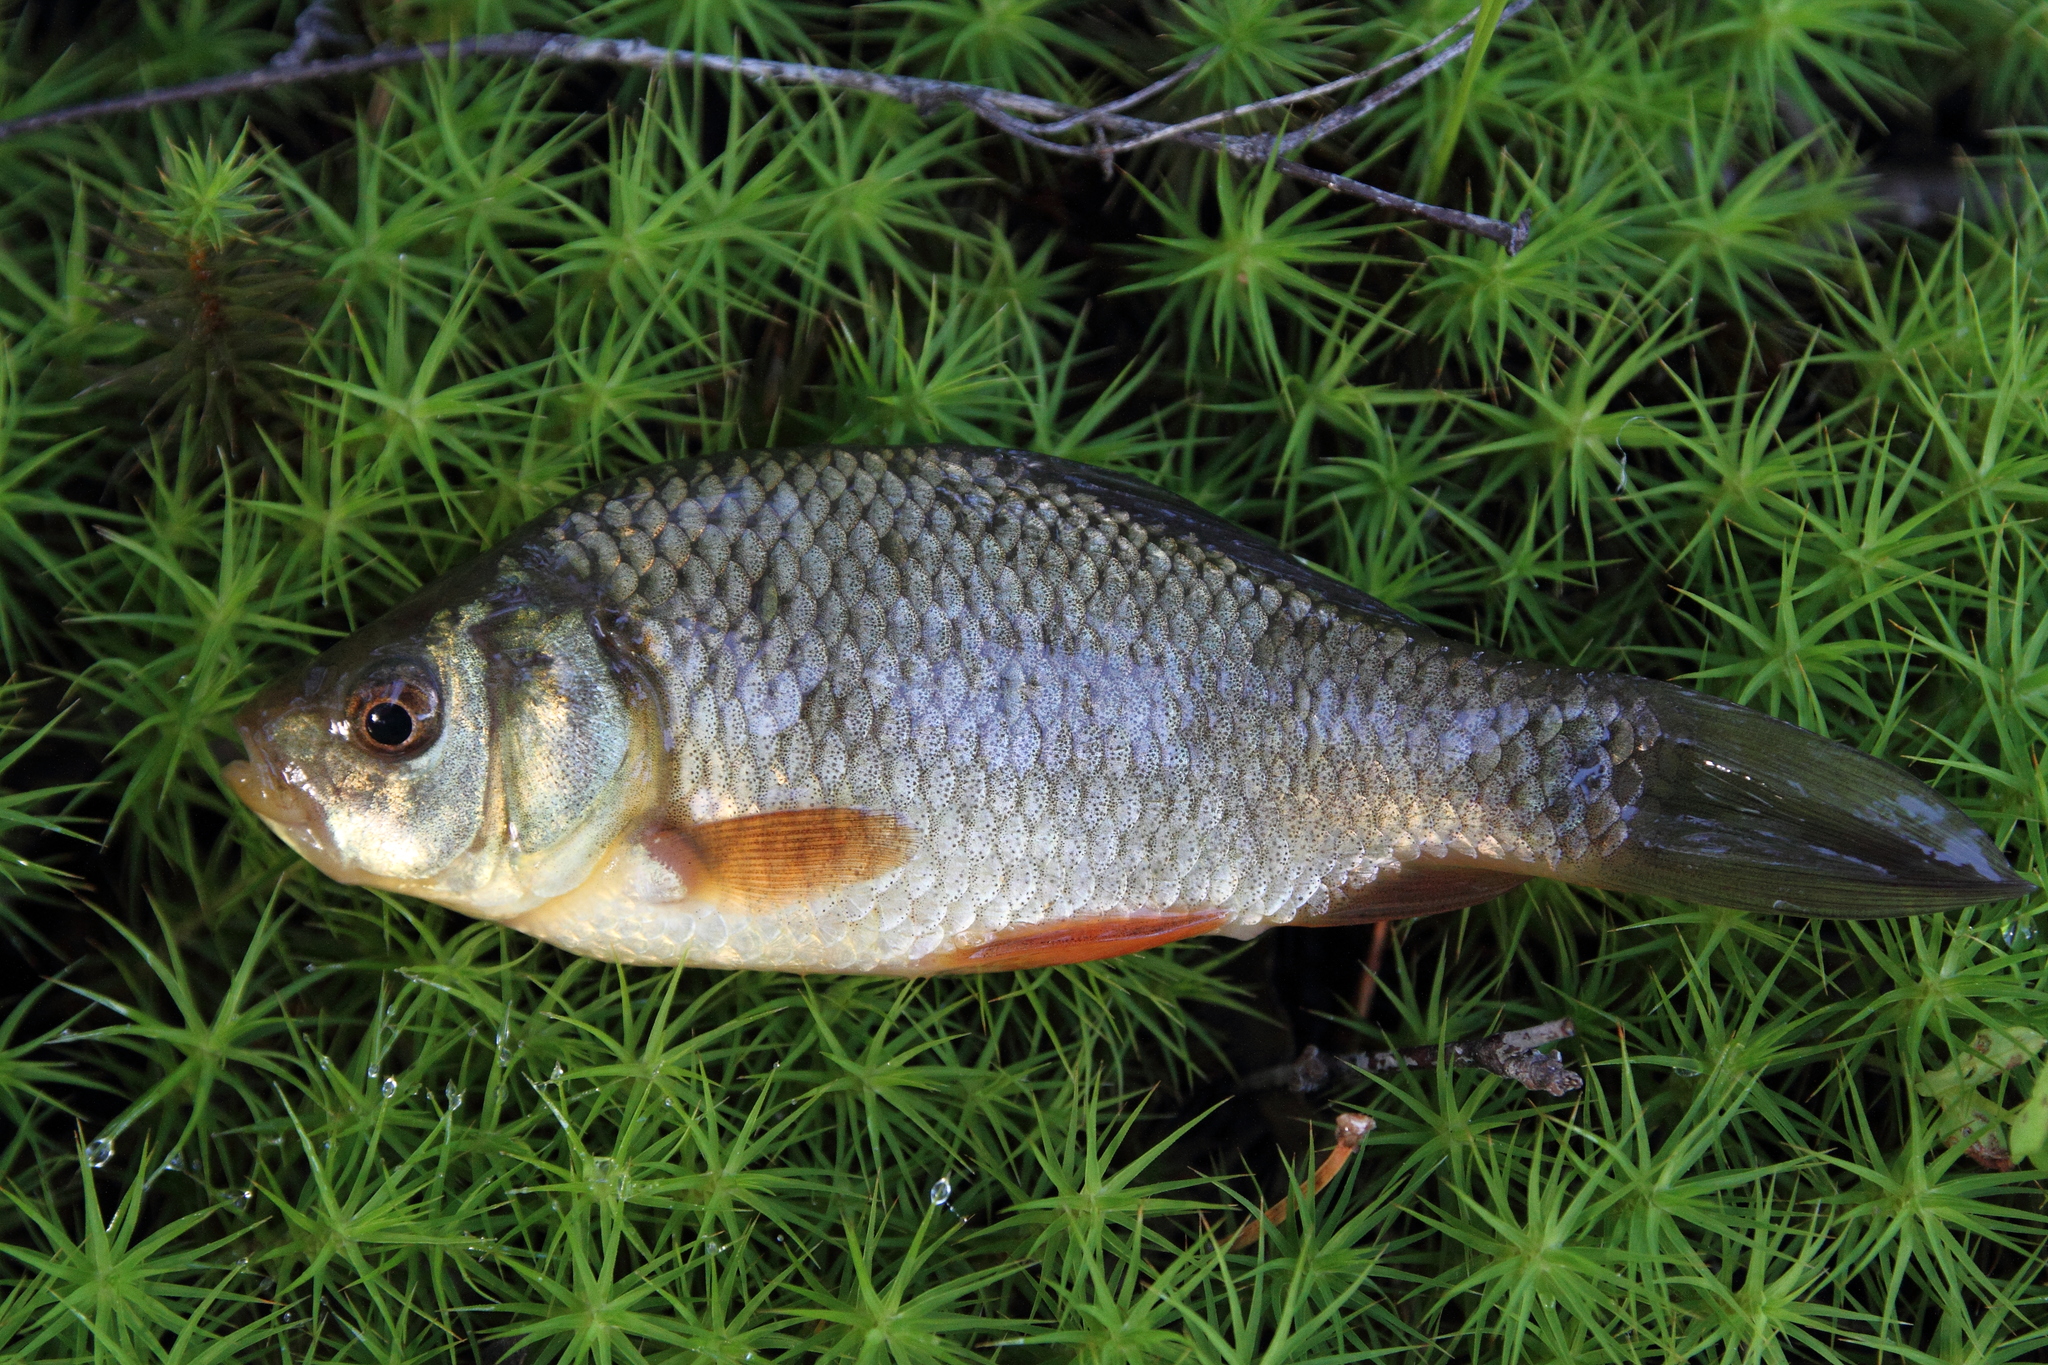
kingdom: Animalia
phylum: Chordata
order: Cypriniformes
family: Cyprinidae
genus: Carassius
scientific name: Carassius carassius
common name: Crucian carp
